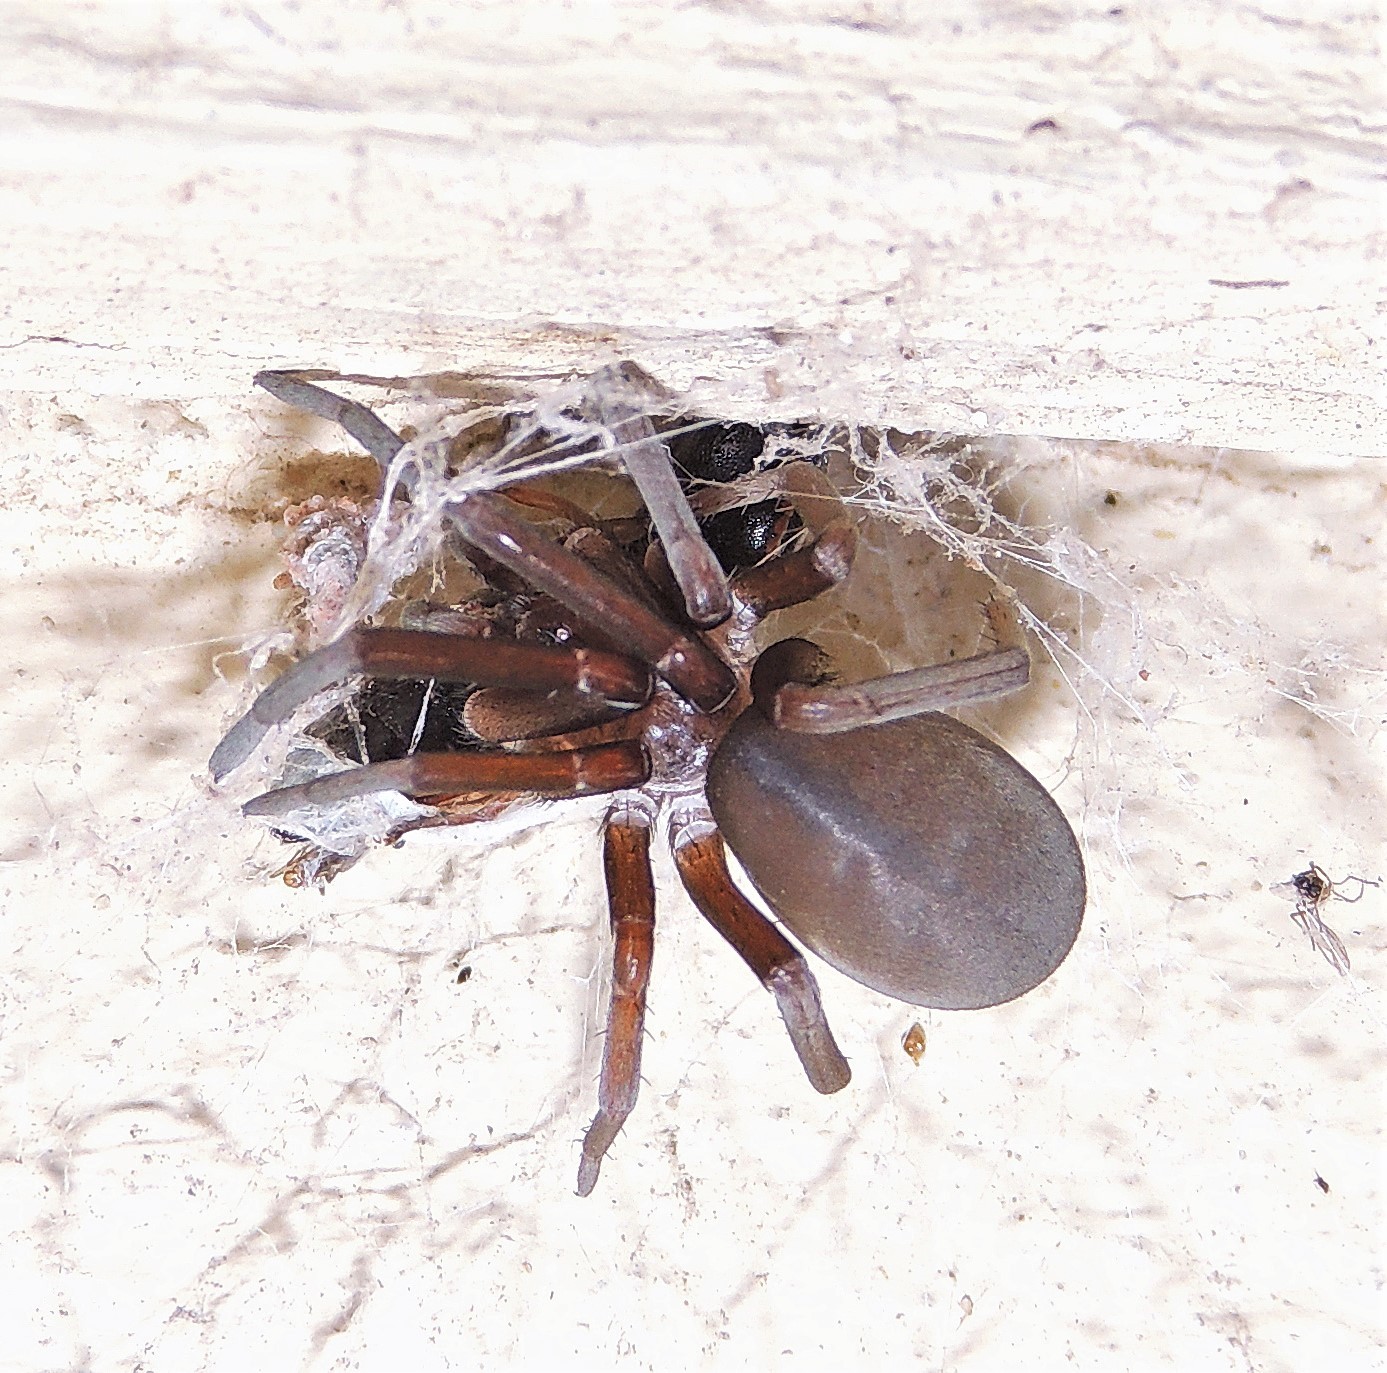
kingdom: Animalia
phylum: Arthropoda
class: Arachnida
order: Araneae
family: Filistatidae
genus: Kukulcania
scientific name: Kukulcania hibernalis
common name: Crevice weaver
